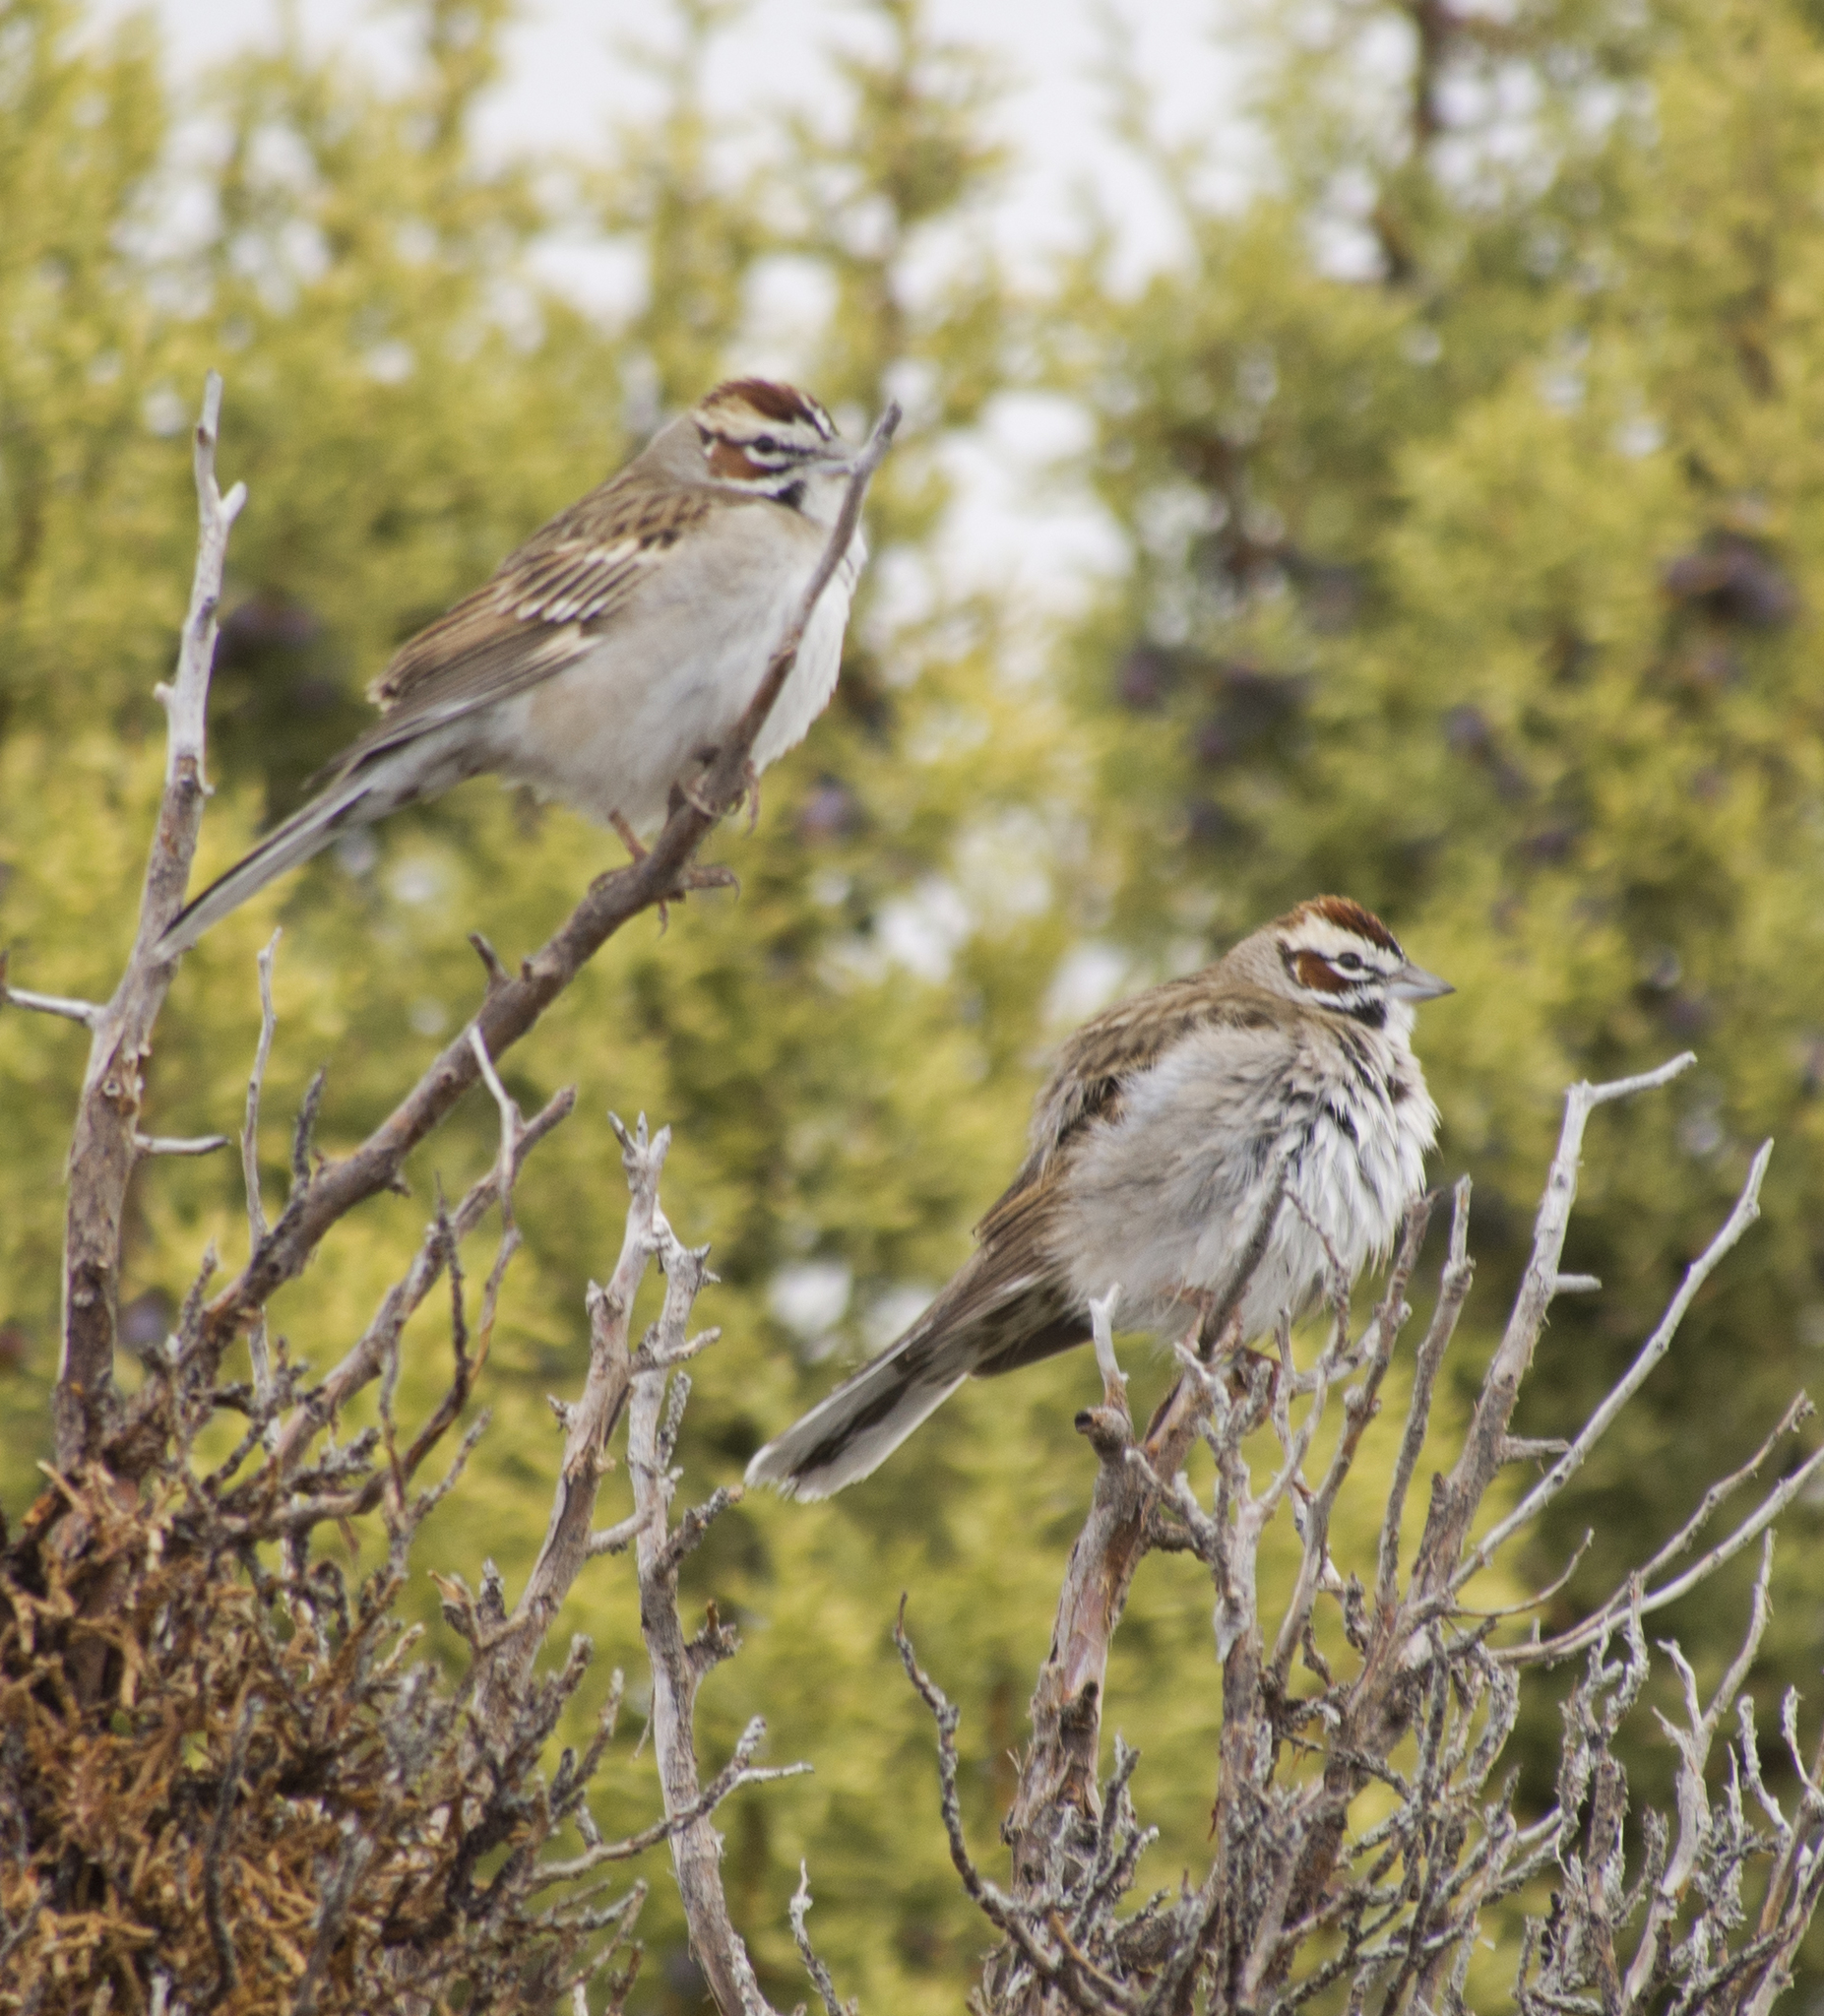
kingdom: Animalia
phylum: Chordata
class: Aves
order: Passeriformes
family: Passerellidae
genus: Chondestes
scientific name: Chondestes grammacus
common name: Lark sparrow
